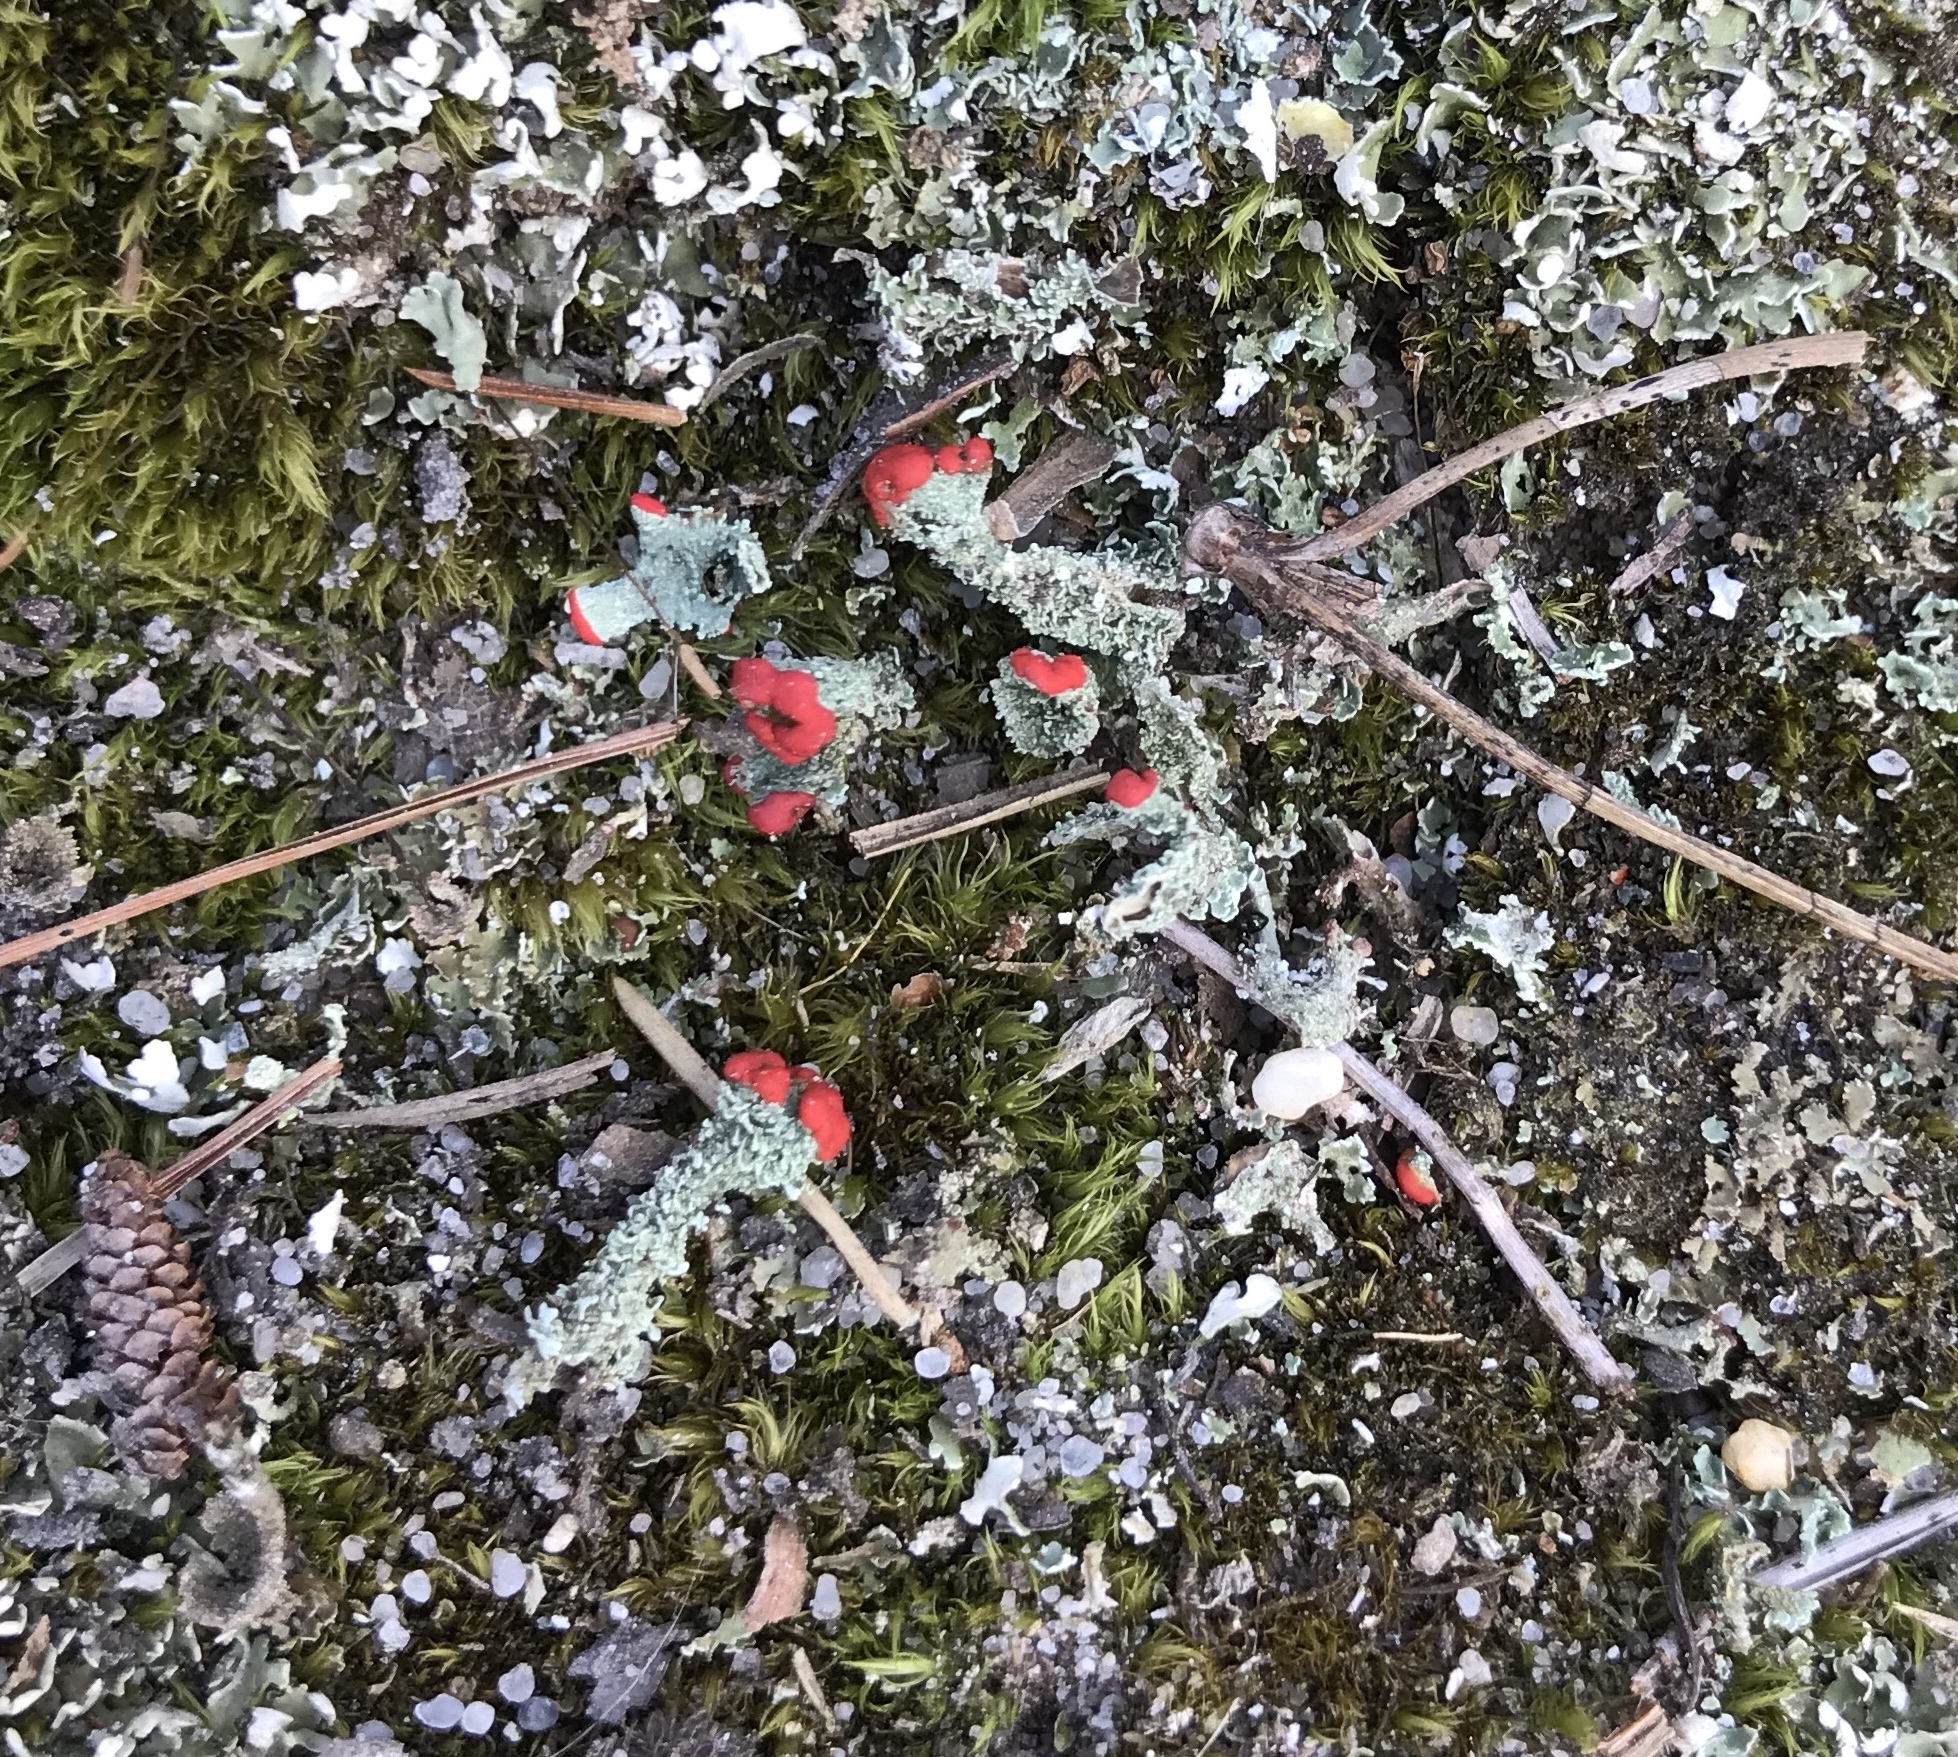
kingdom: Fungi
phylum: Ascomycota
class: Lecanoromycetes
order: Lecanorales
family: Cladoniaceae
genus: Cladonia
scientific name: Cladonia cristatella
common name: British soldier lichen
